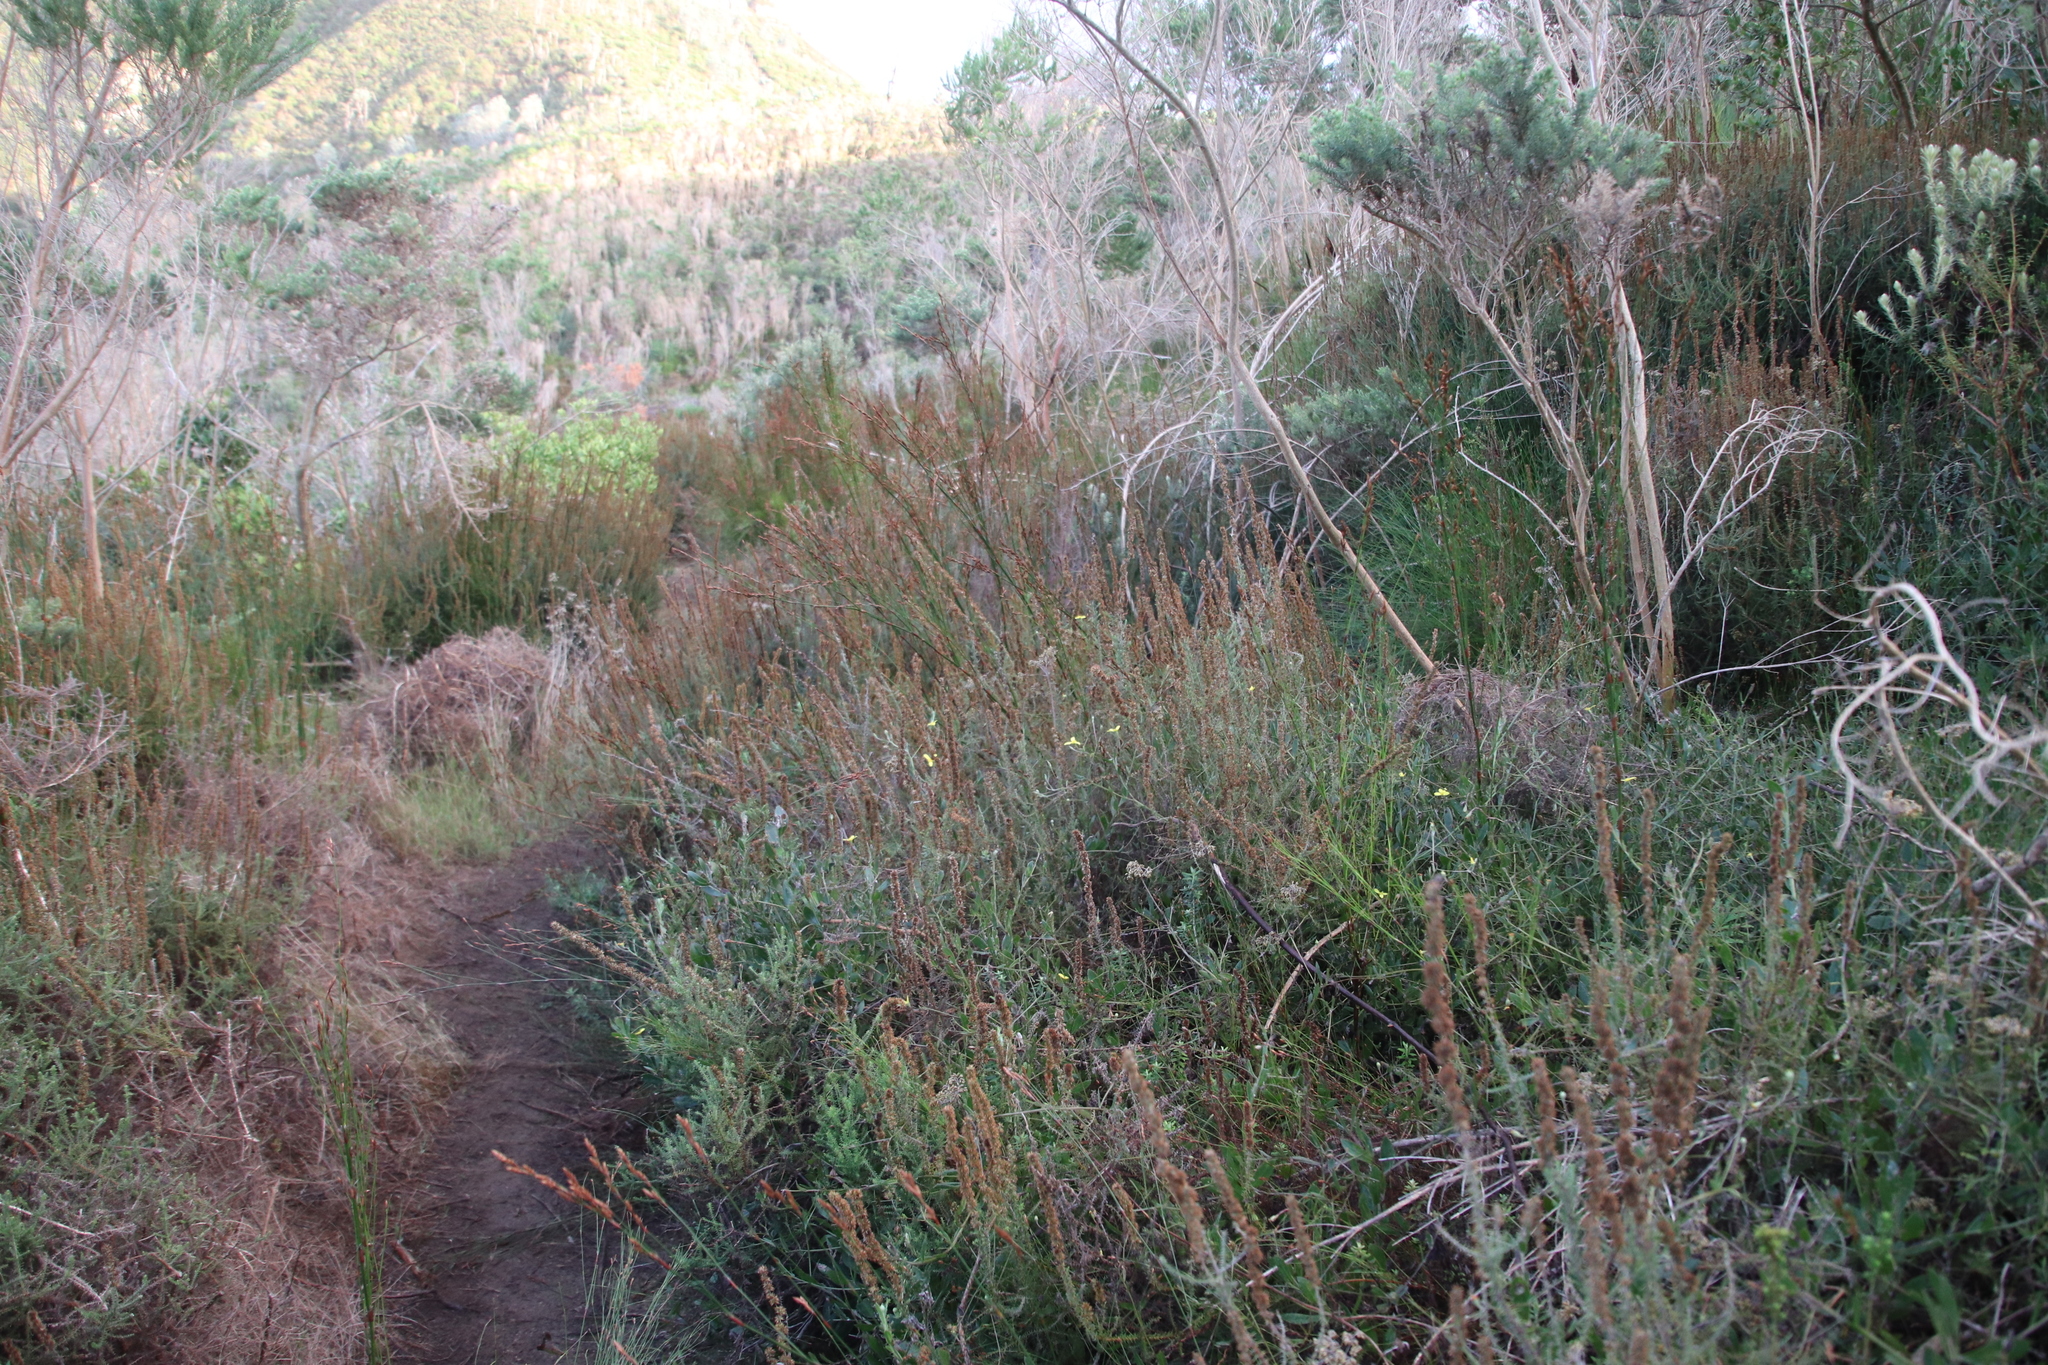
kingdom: Plantae
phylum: Tracheophyta
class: Magnoliopsida
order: Asterales
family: Asteraceae
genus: Osteospermum
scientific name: Osteospermum ciliatum
